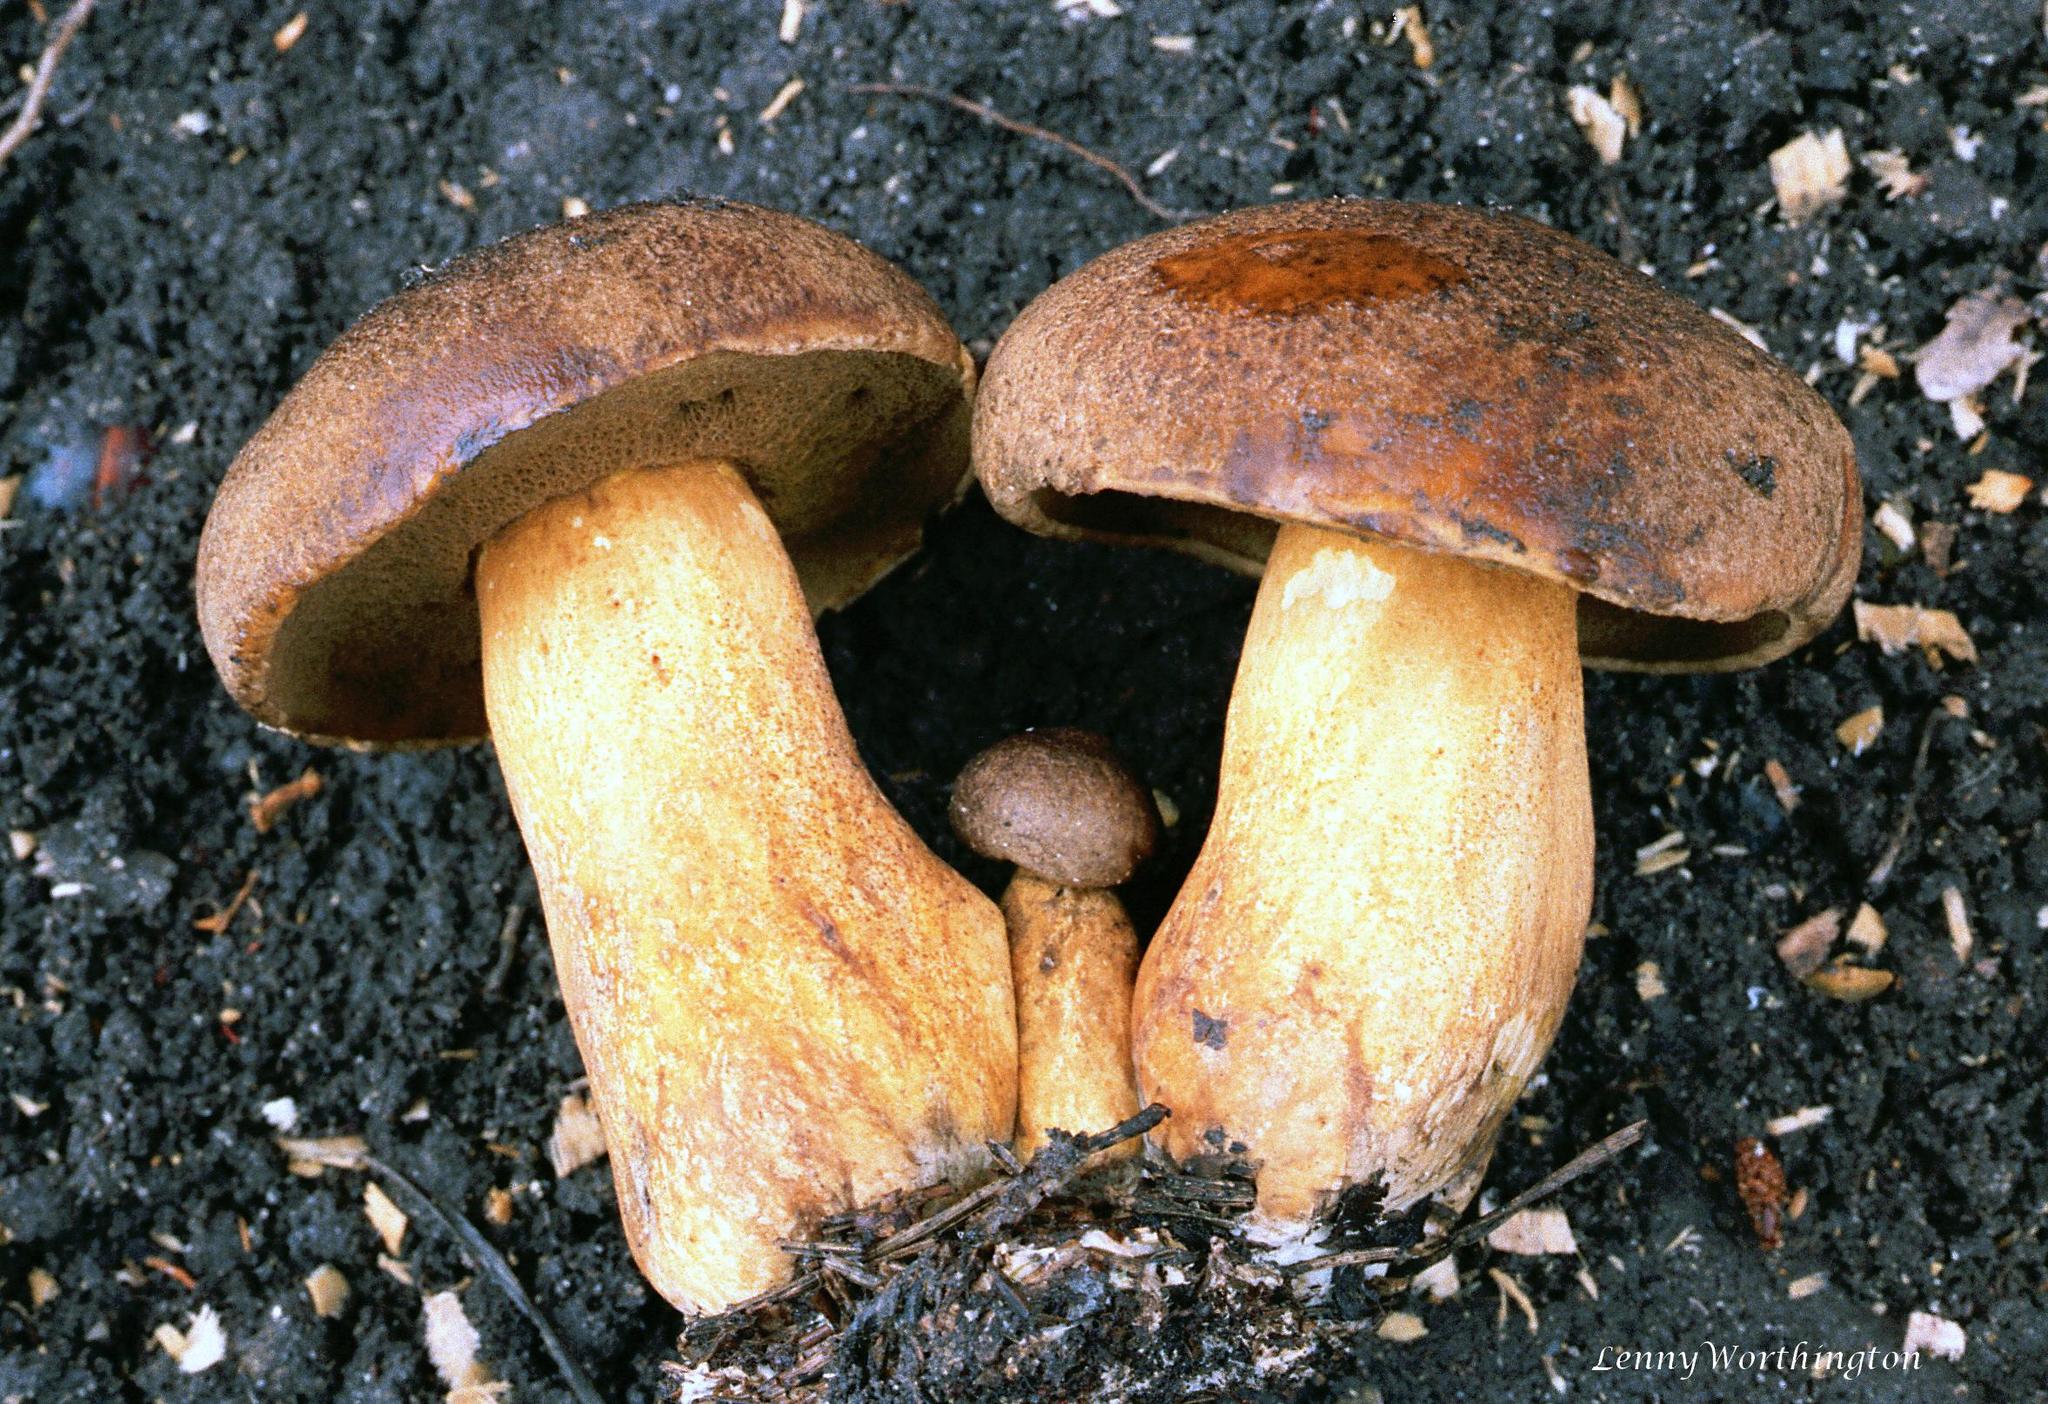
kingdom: Fungi
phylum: Basidiomycota
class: Agaricomycetes
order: Boletales
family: Suillaceae
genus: Suillus
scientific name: Suillus variegatus
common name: Velvet bolete
